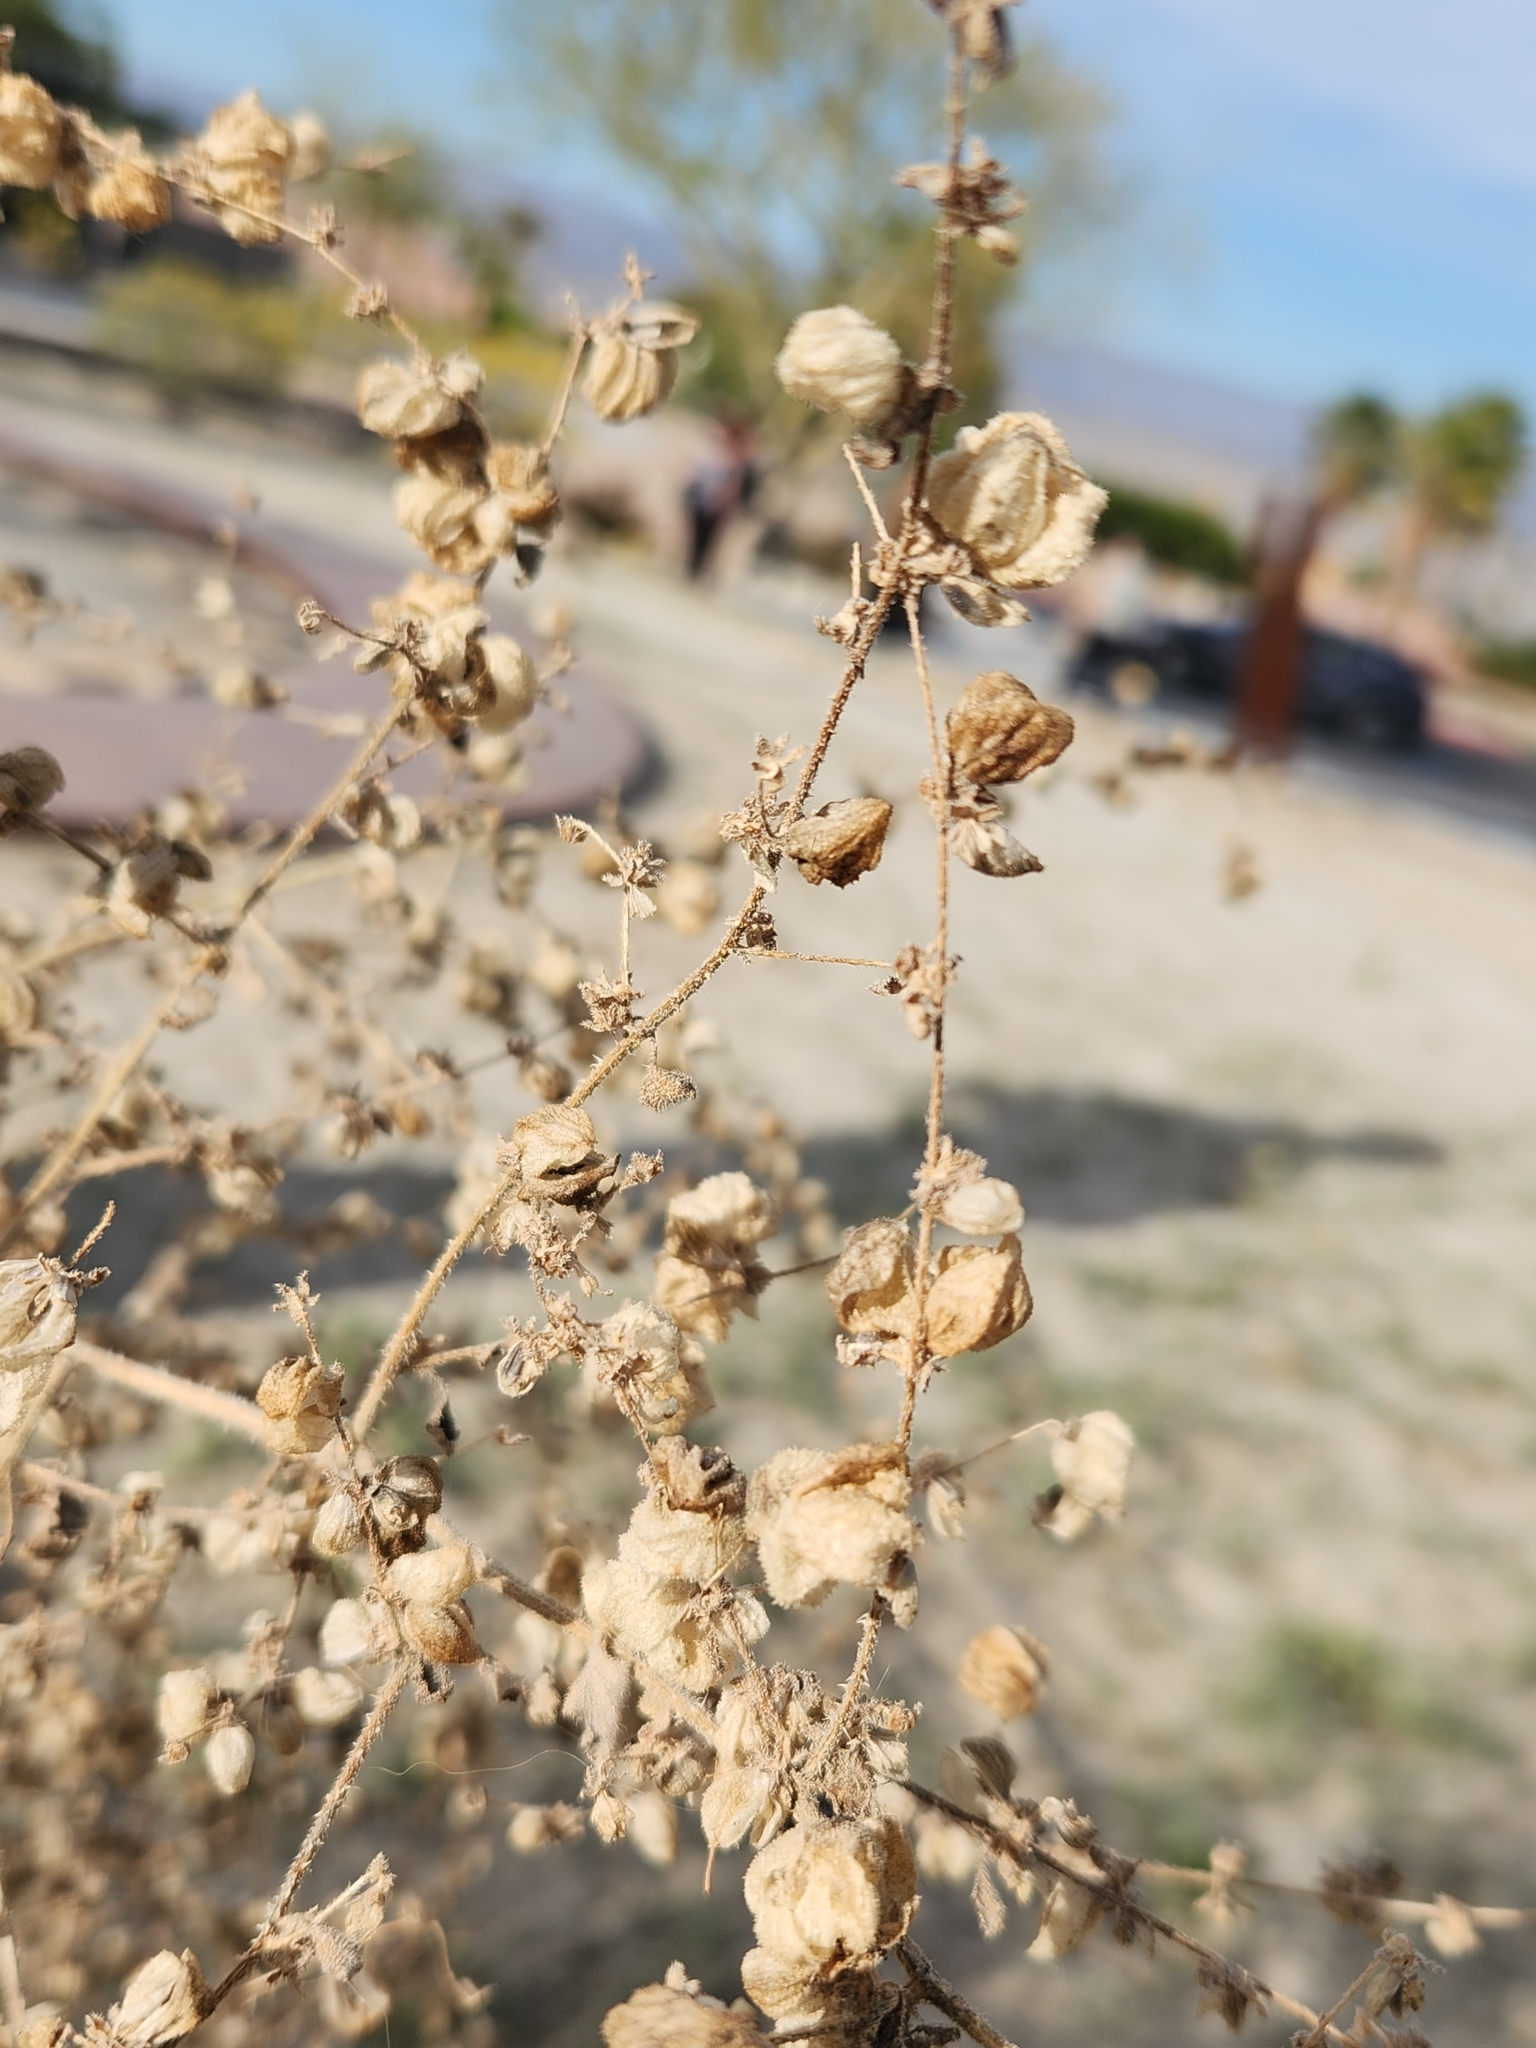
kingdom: Plantae
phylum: Tracheophyta
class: Magnoliopsida
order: Asterales
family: Asteraceae
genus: Dicoria
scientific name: Dicoria canescens
